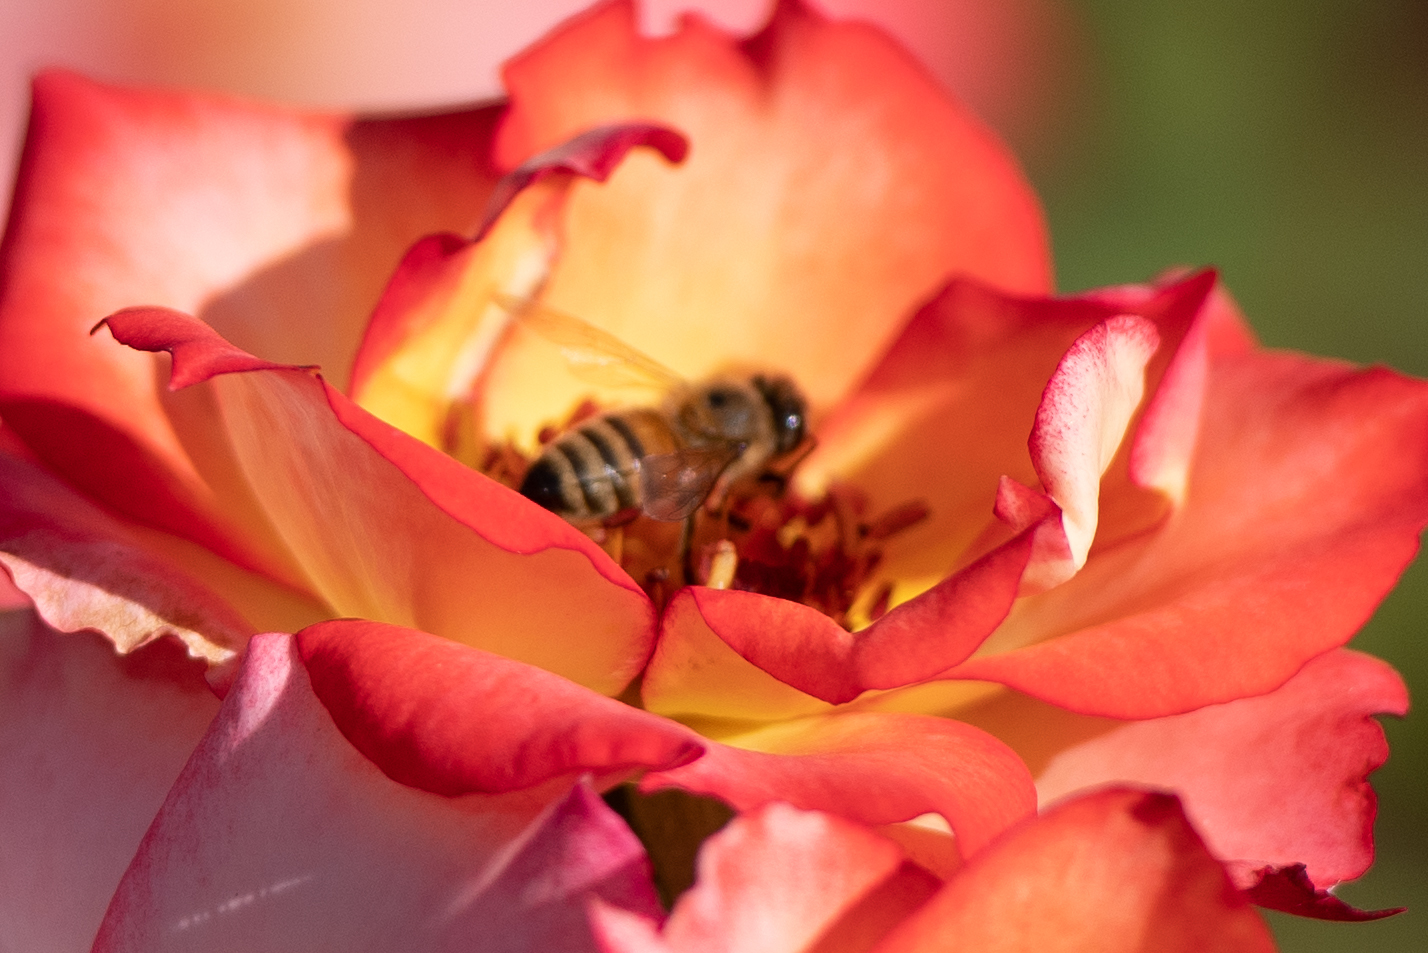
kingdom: Animalia
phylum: Arthropoda
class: Insecta
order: Hymenoptera
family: Apidae
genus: Apis
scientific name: Apis mellifera
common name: Honey bee
